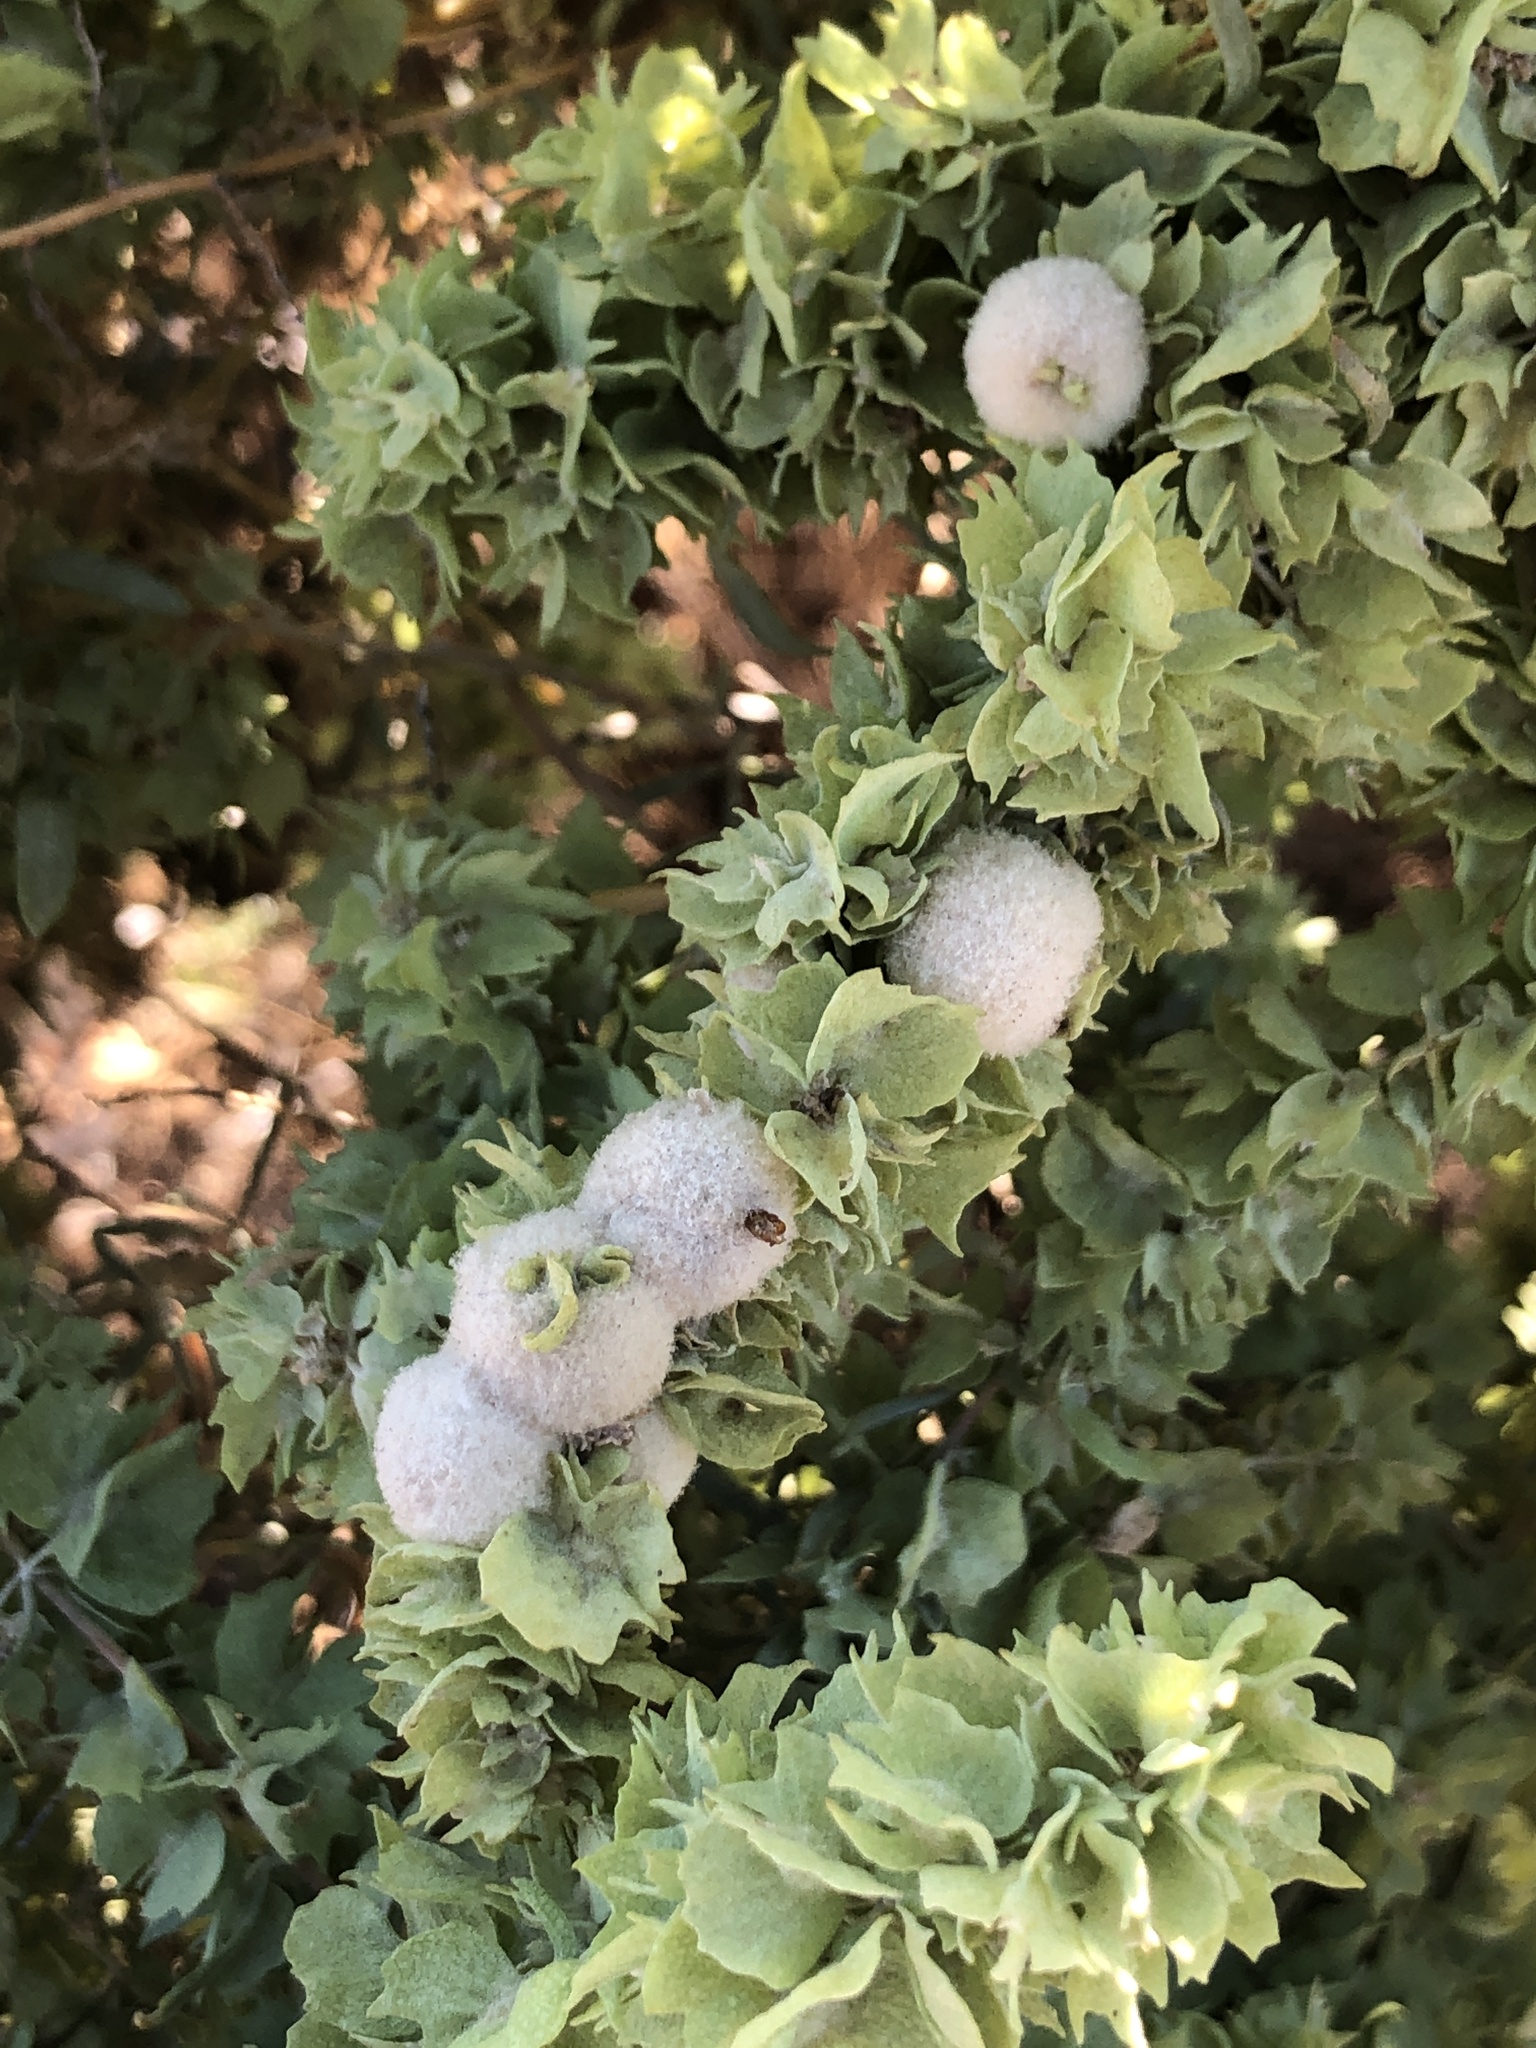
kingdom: Animalia
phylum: Arthropoda
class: Insecta
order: Diptera
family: Cecidomyiidae
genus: Asphondylia
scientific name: Asphondylia neomexicana
